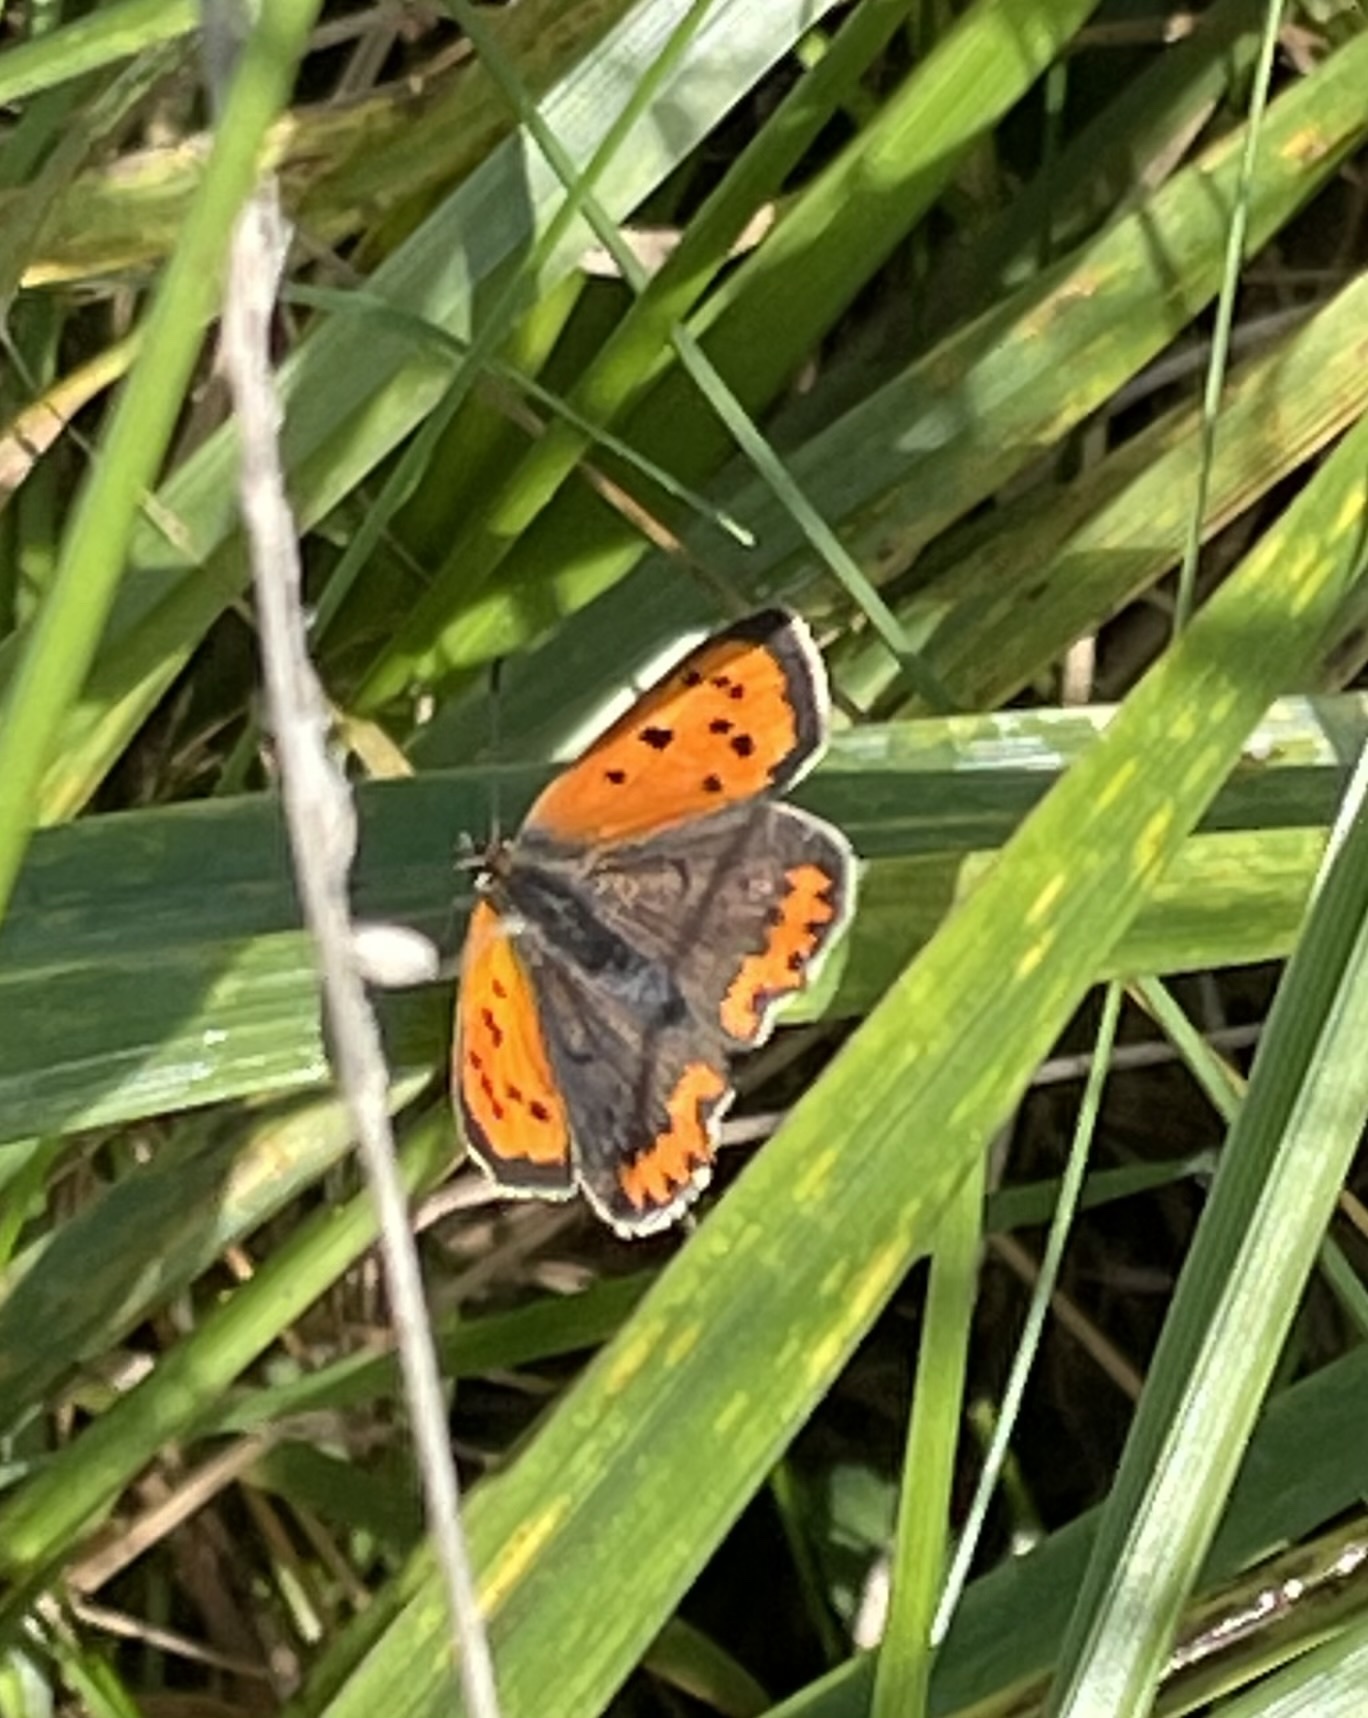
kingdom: Animalia
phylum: Arthropoda
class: Insecta
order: Lepidoptera
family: Lycaenidae
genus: Lycaena
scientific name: Lycaena phlaeas
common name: Small copper
